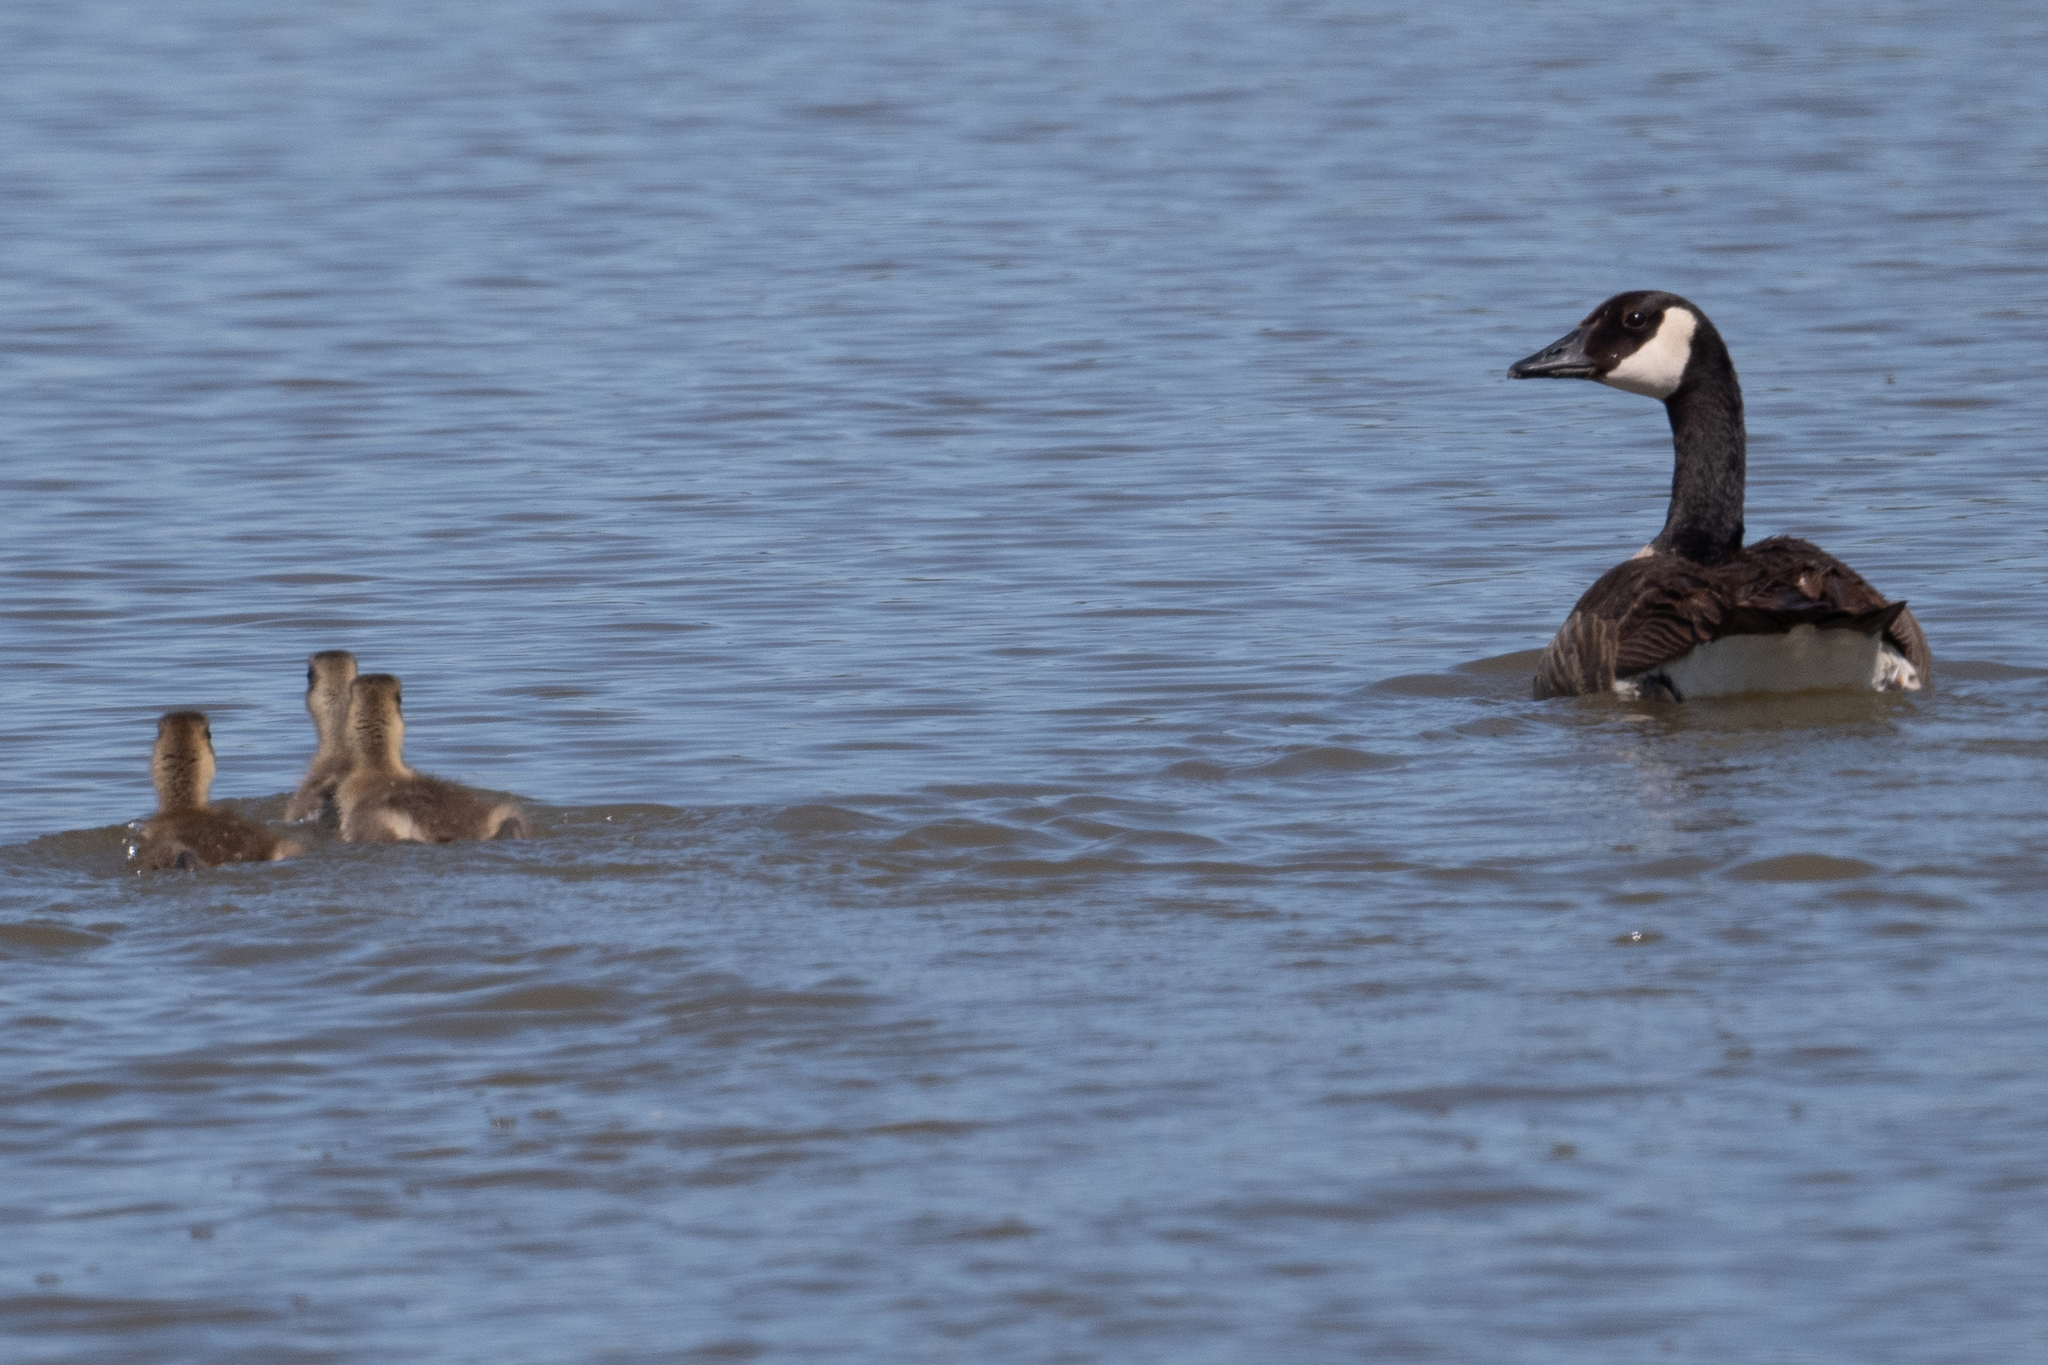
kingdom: Animalia
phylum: Chordata
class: Aves
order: Anseriformes
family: Anatidae
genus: Branta
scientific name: Branta canadensis
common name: Canada goose
